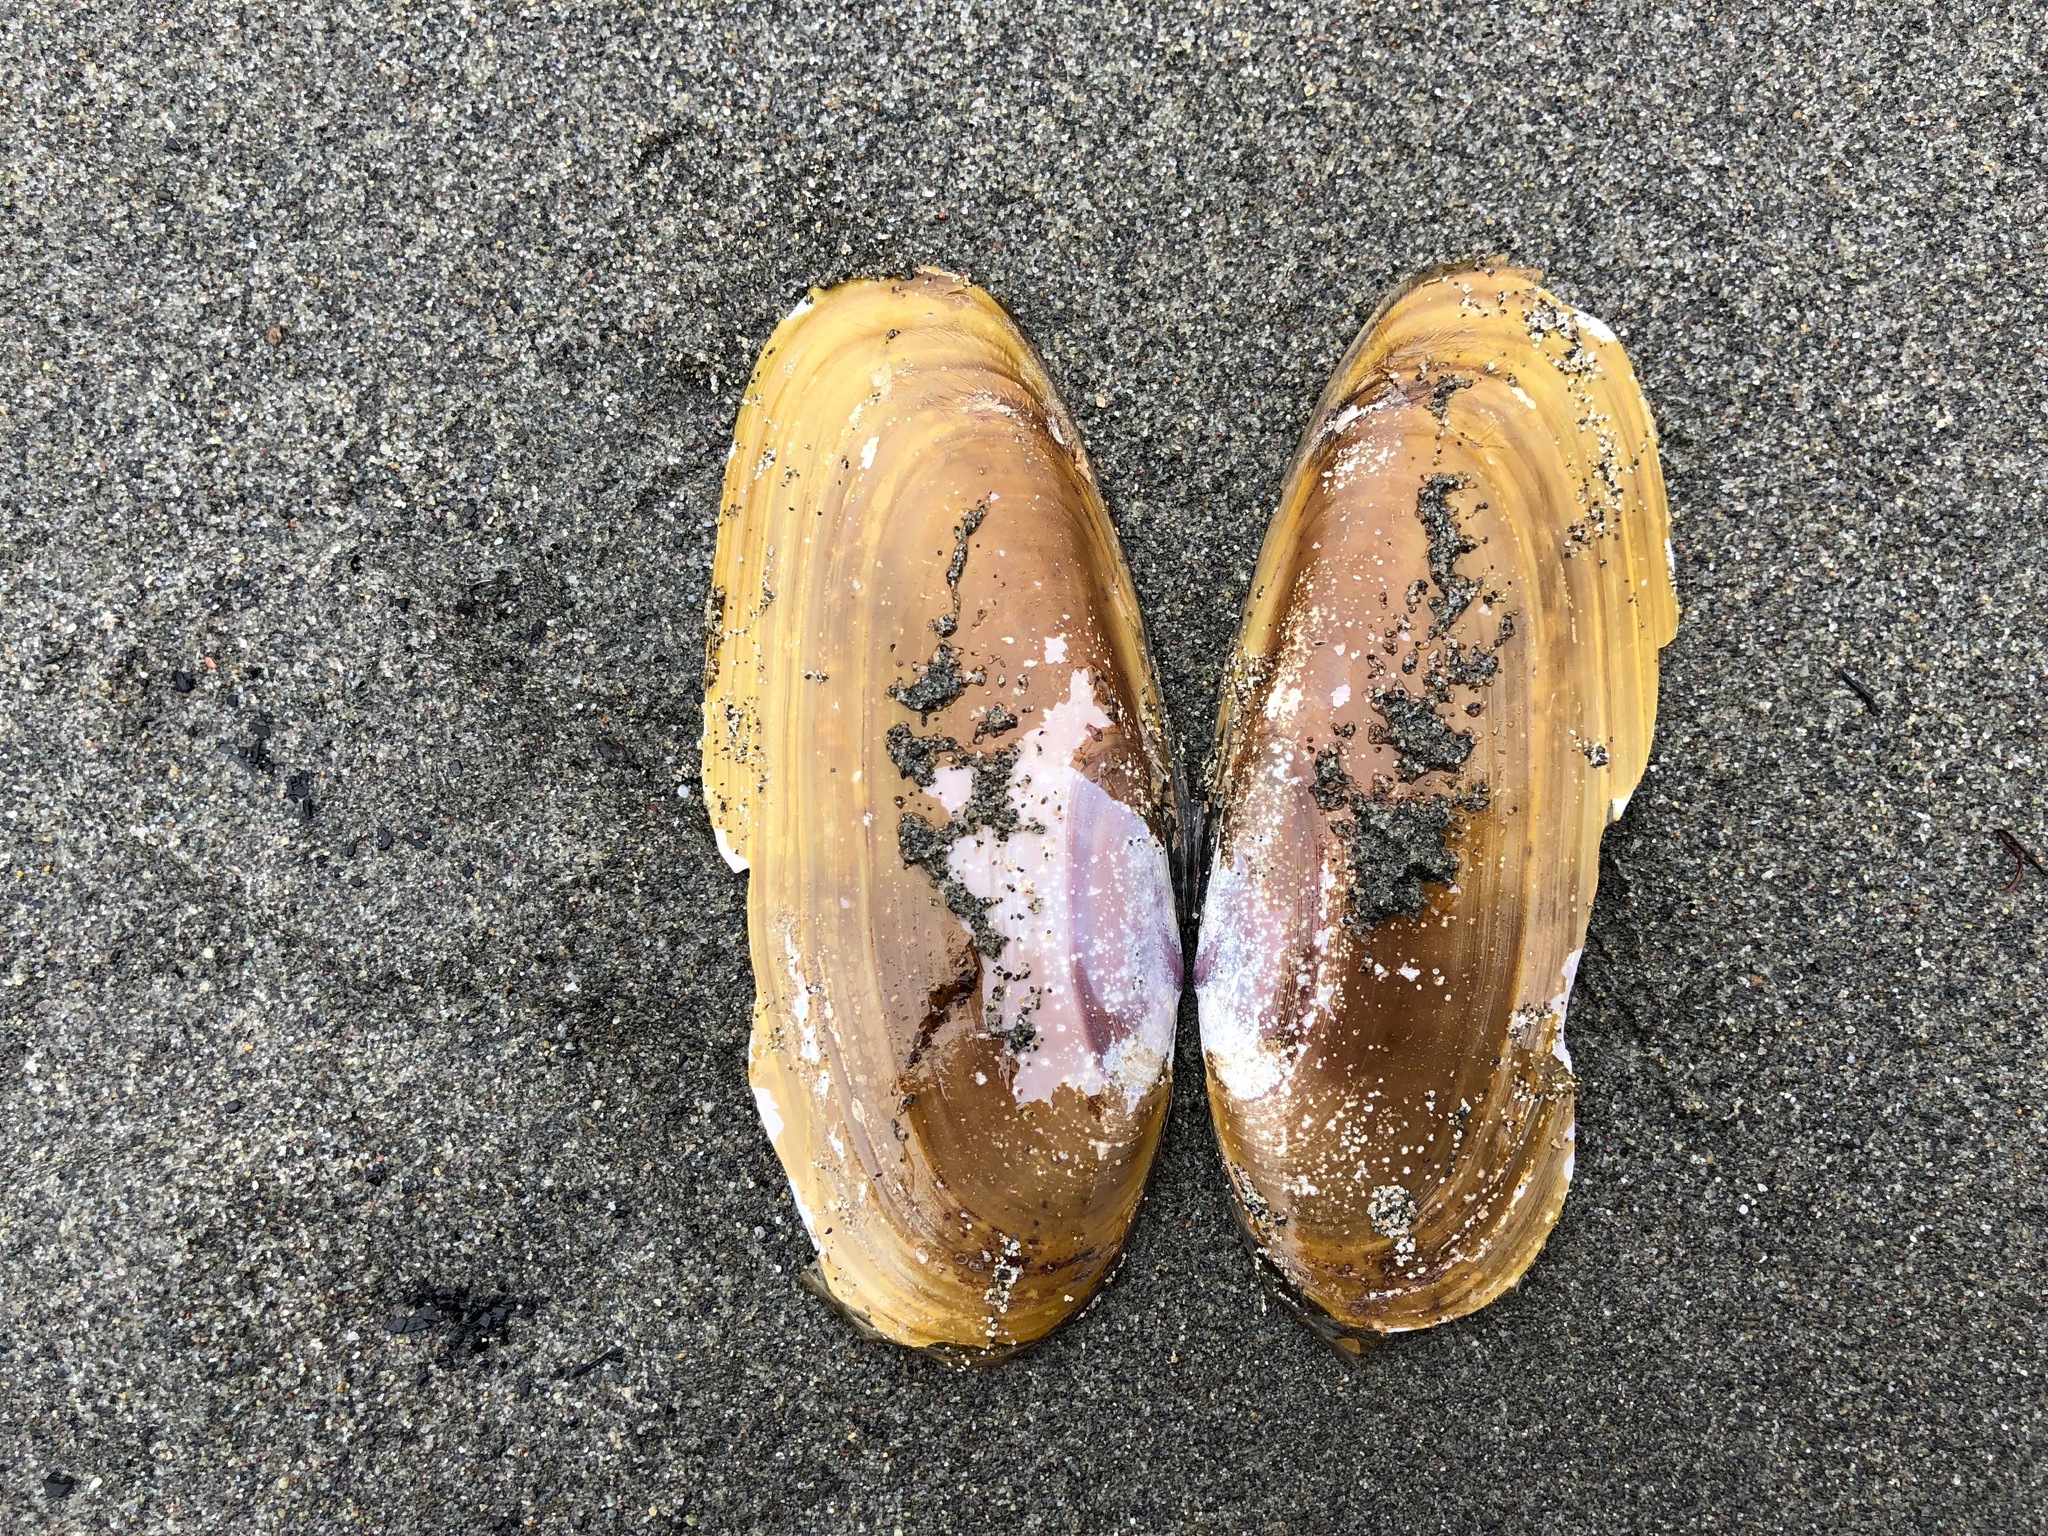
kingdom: Animalia
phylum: Mollusca
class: Bivalvia
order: Adapedonta
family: Pharidae
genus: Siliqua
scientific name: Siliqua patula
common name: Pacific razor clam
